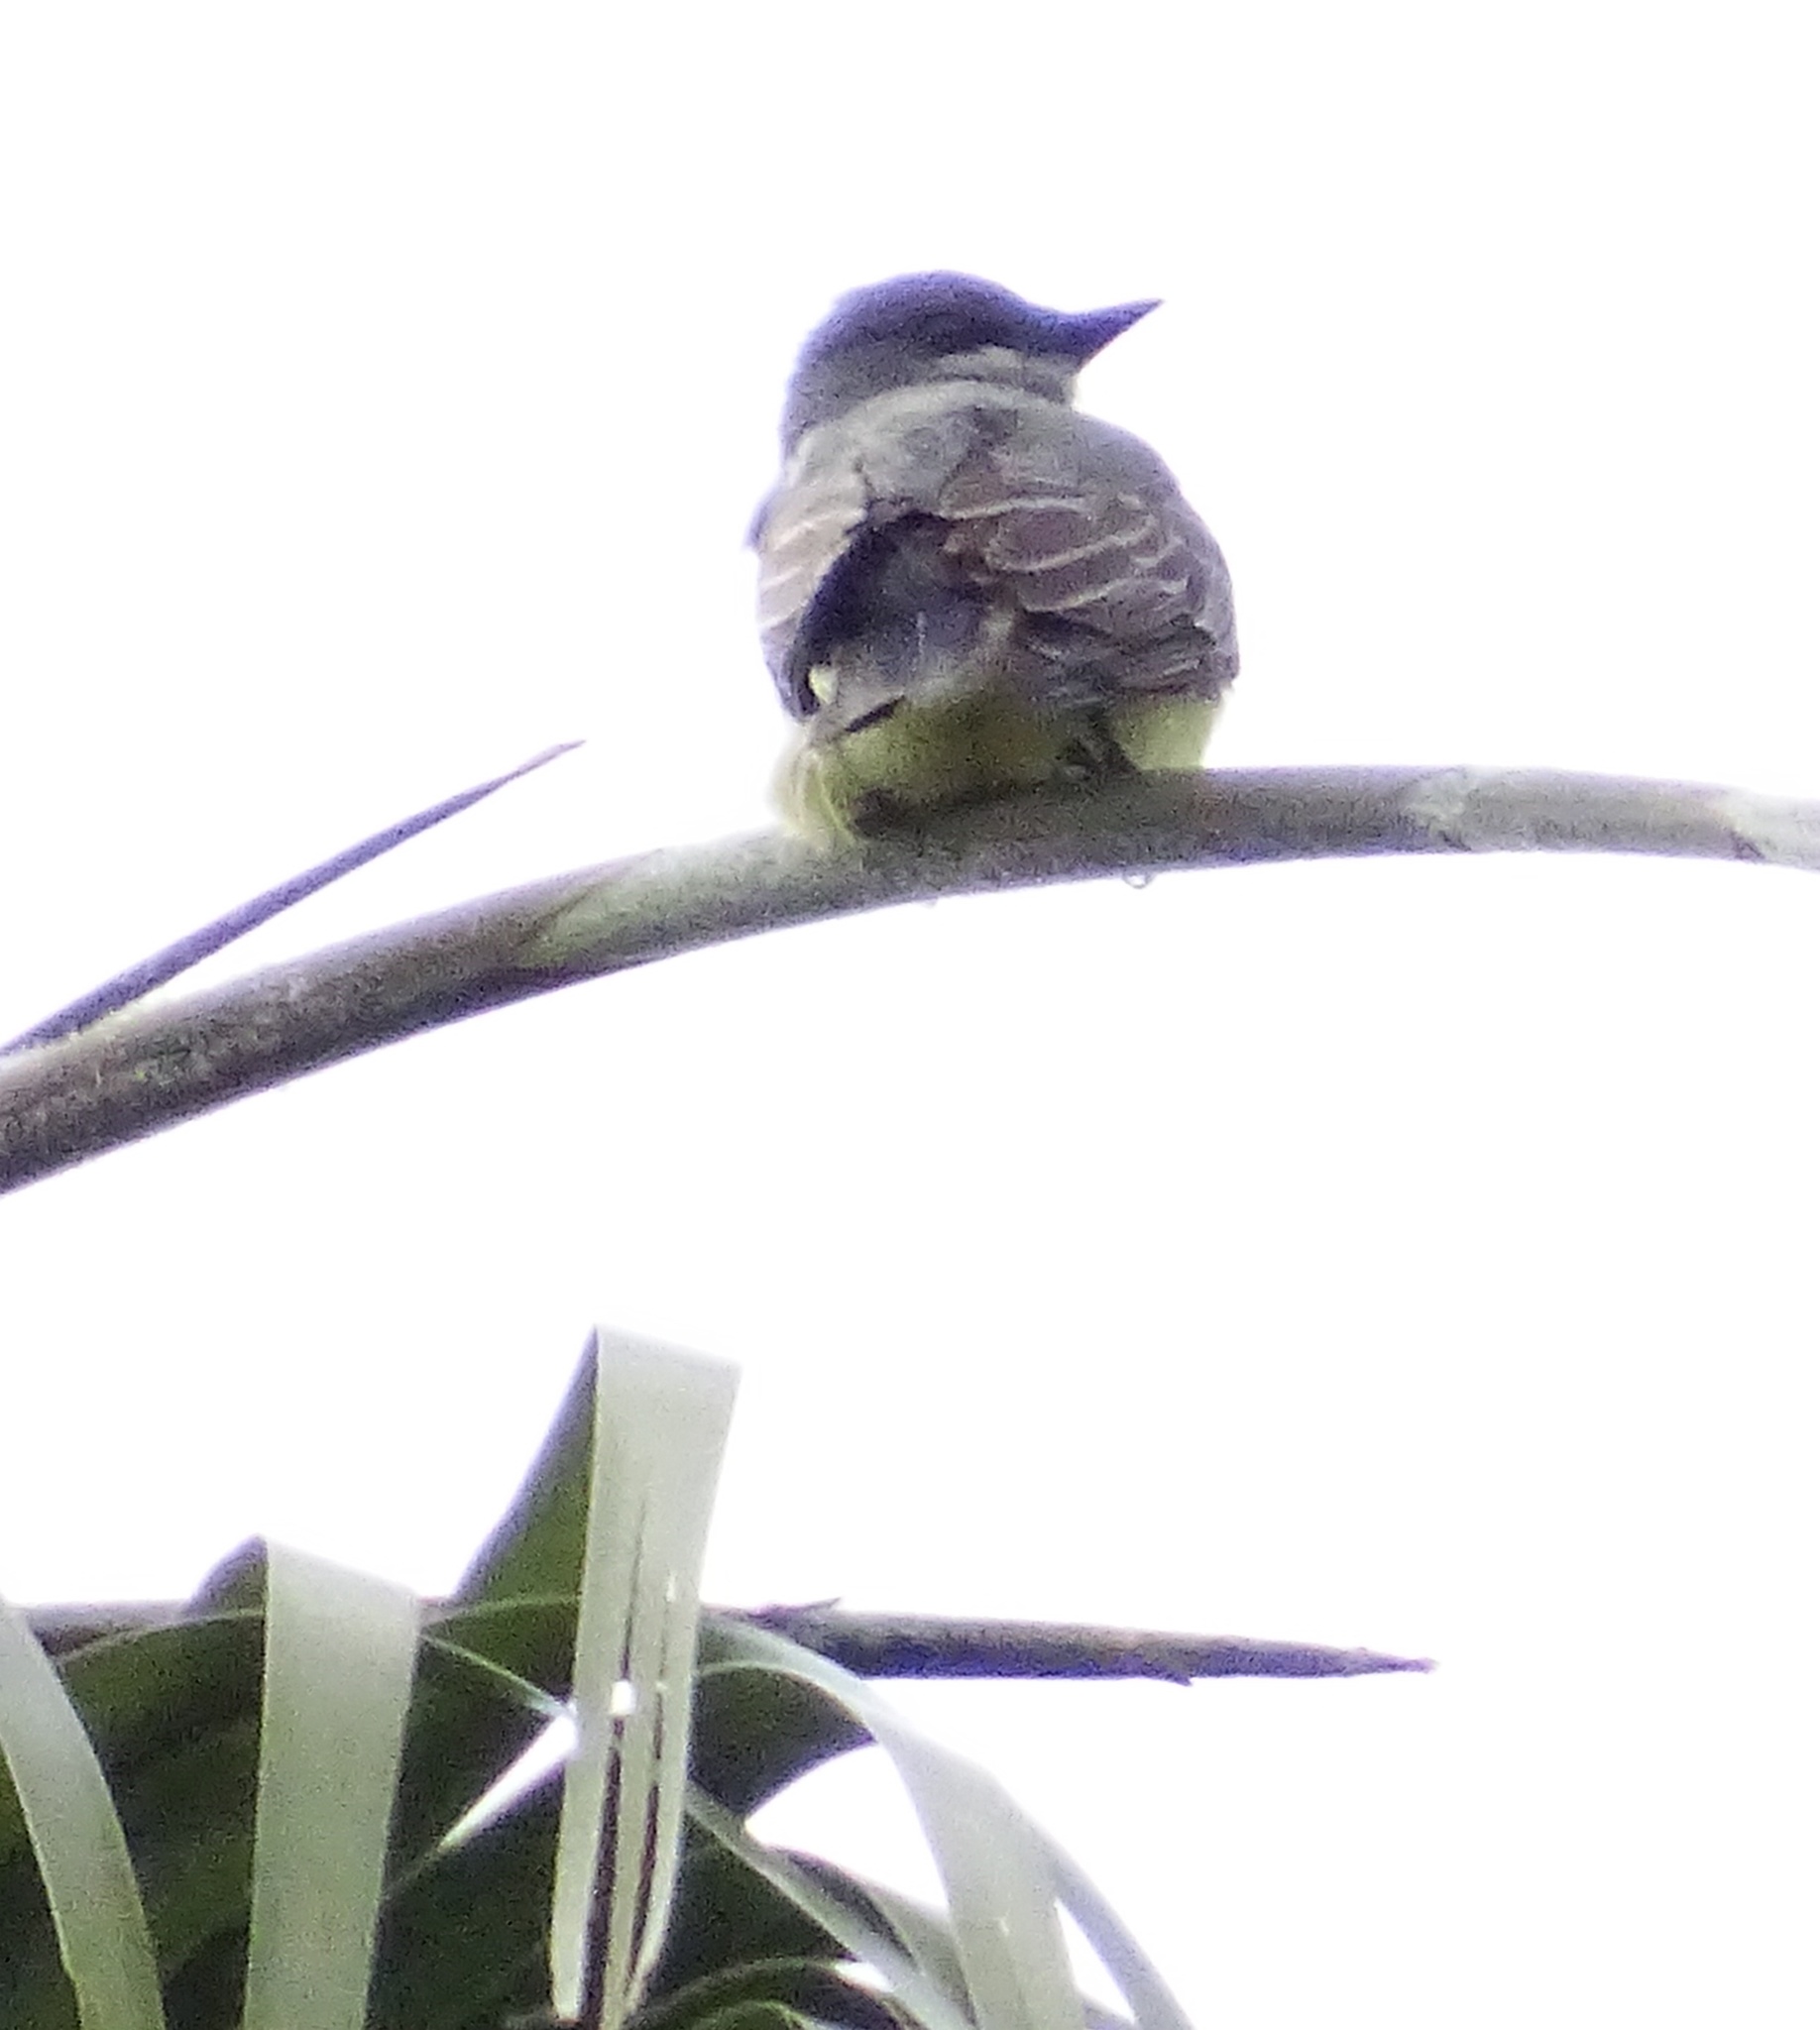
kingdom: Animalia
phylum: Chordata
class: Aves
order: Passeriformes
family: Tyrannidae
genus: Tyrannus
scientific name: Tyrannus vociferans
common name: Cassin's kingbird
